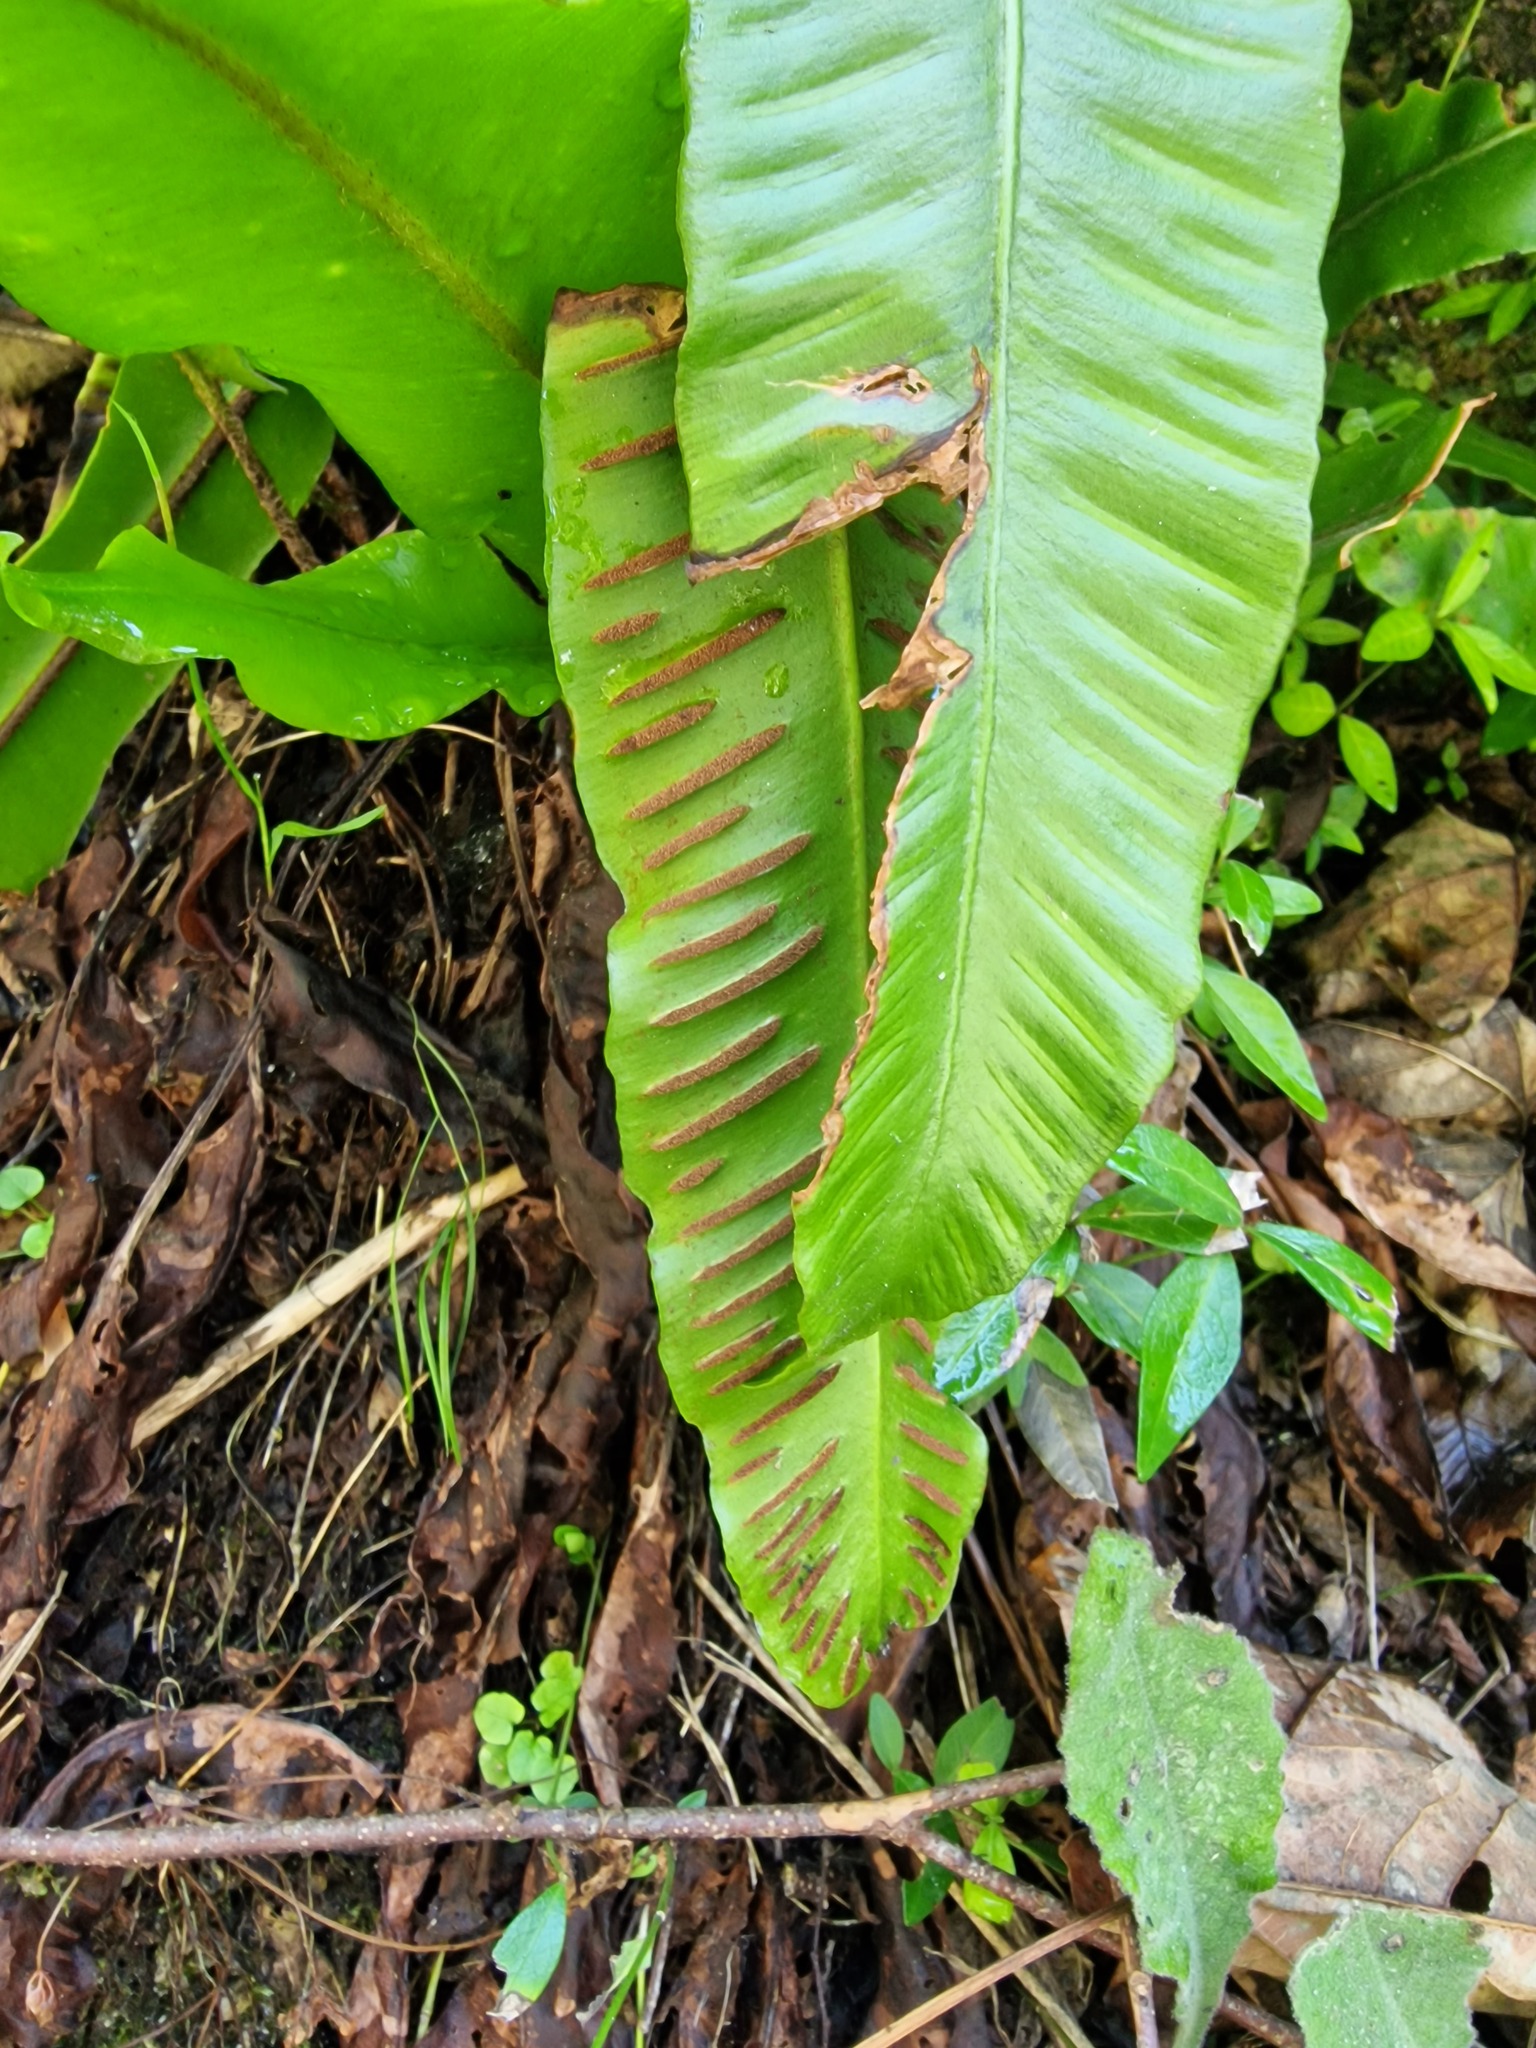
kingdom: Plantae
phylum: Tracheophyta
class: Polypodiopsida
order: Polypodiales
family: Aspleniaceae
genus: Asplenium
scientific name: Asplenium scolopendrium
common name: Hart's-tongue fern
